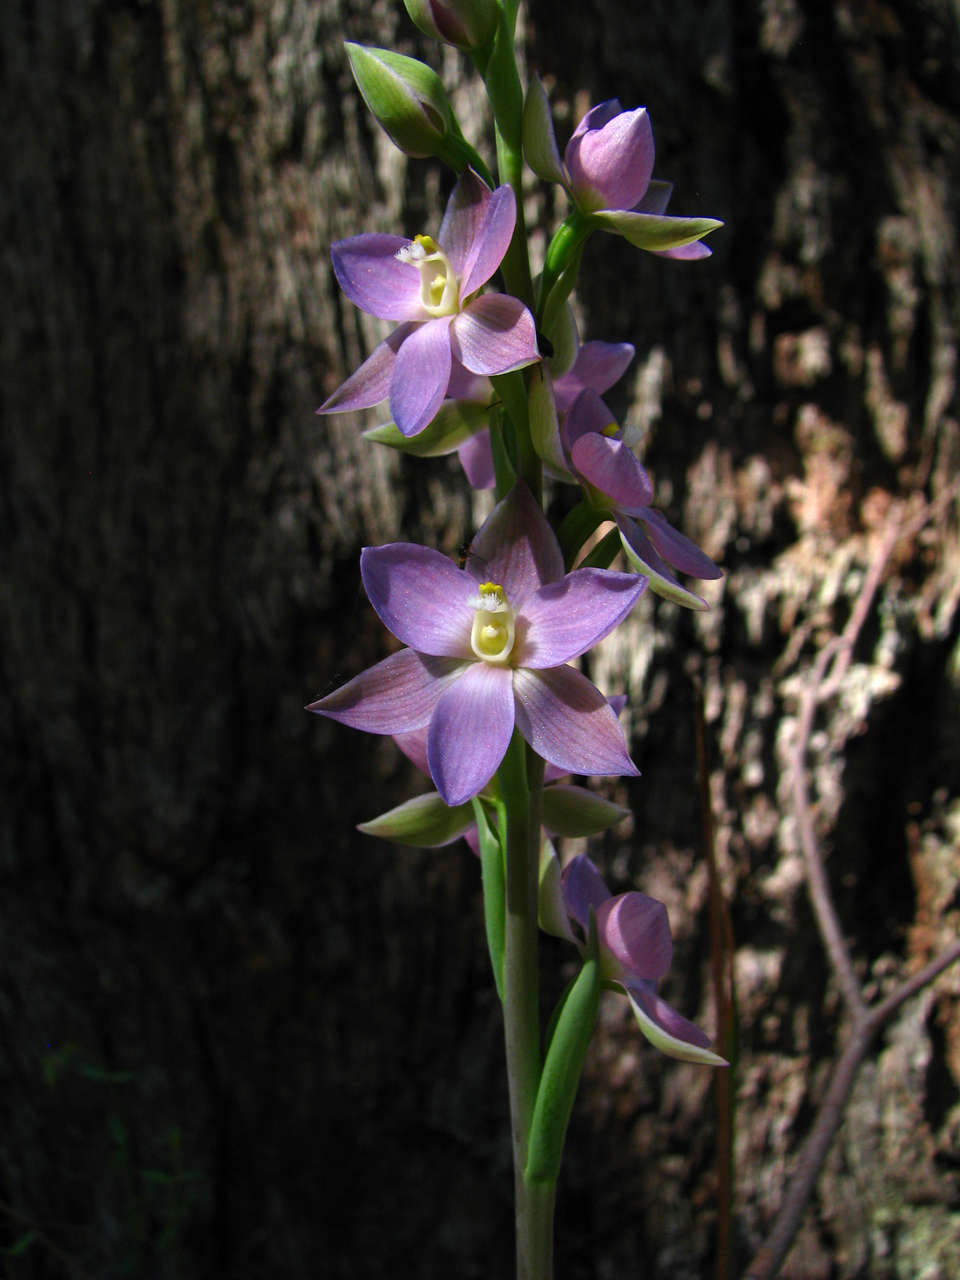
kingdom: Plantae
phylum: Tracheophyta
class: Liliopsida
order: Asparagales
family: Orchidaceae
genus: Thelymitra
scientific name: Thelymitra aristata
